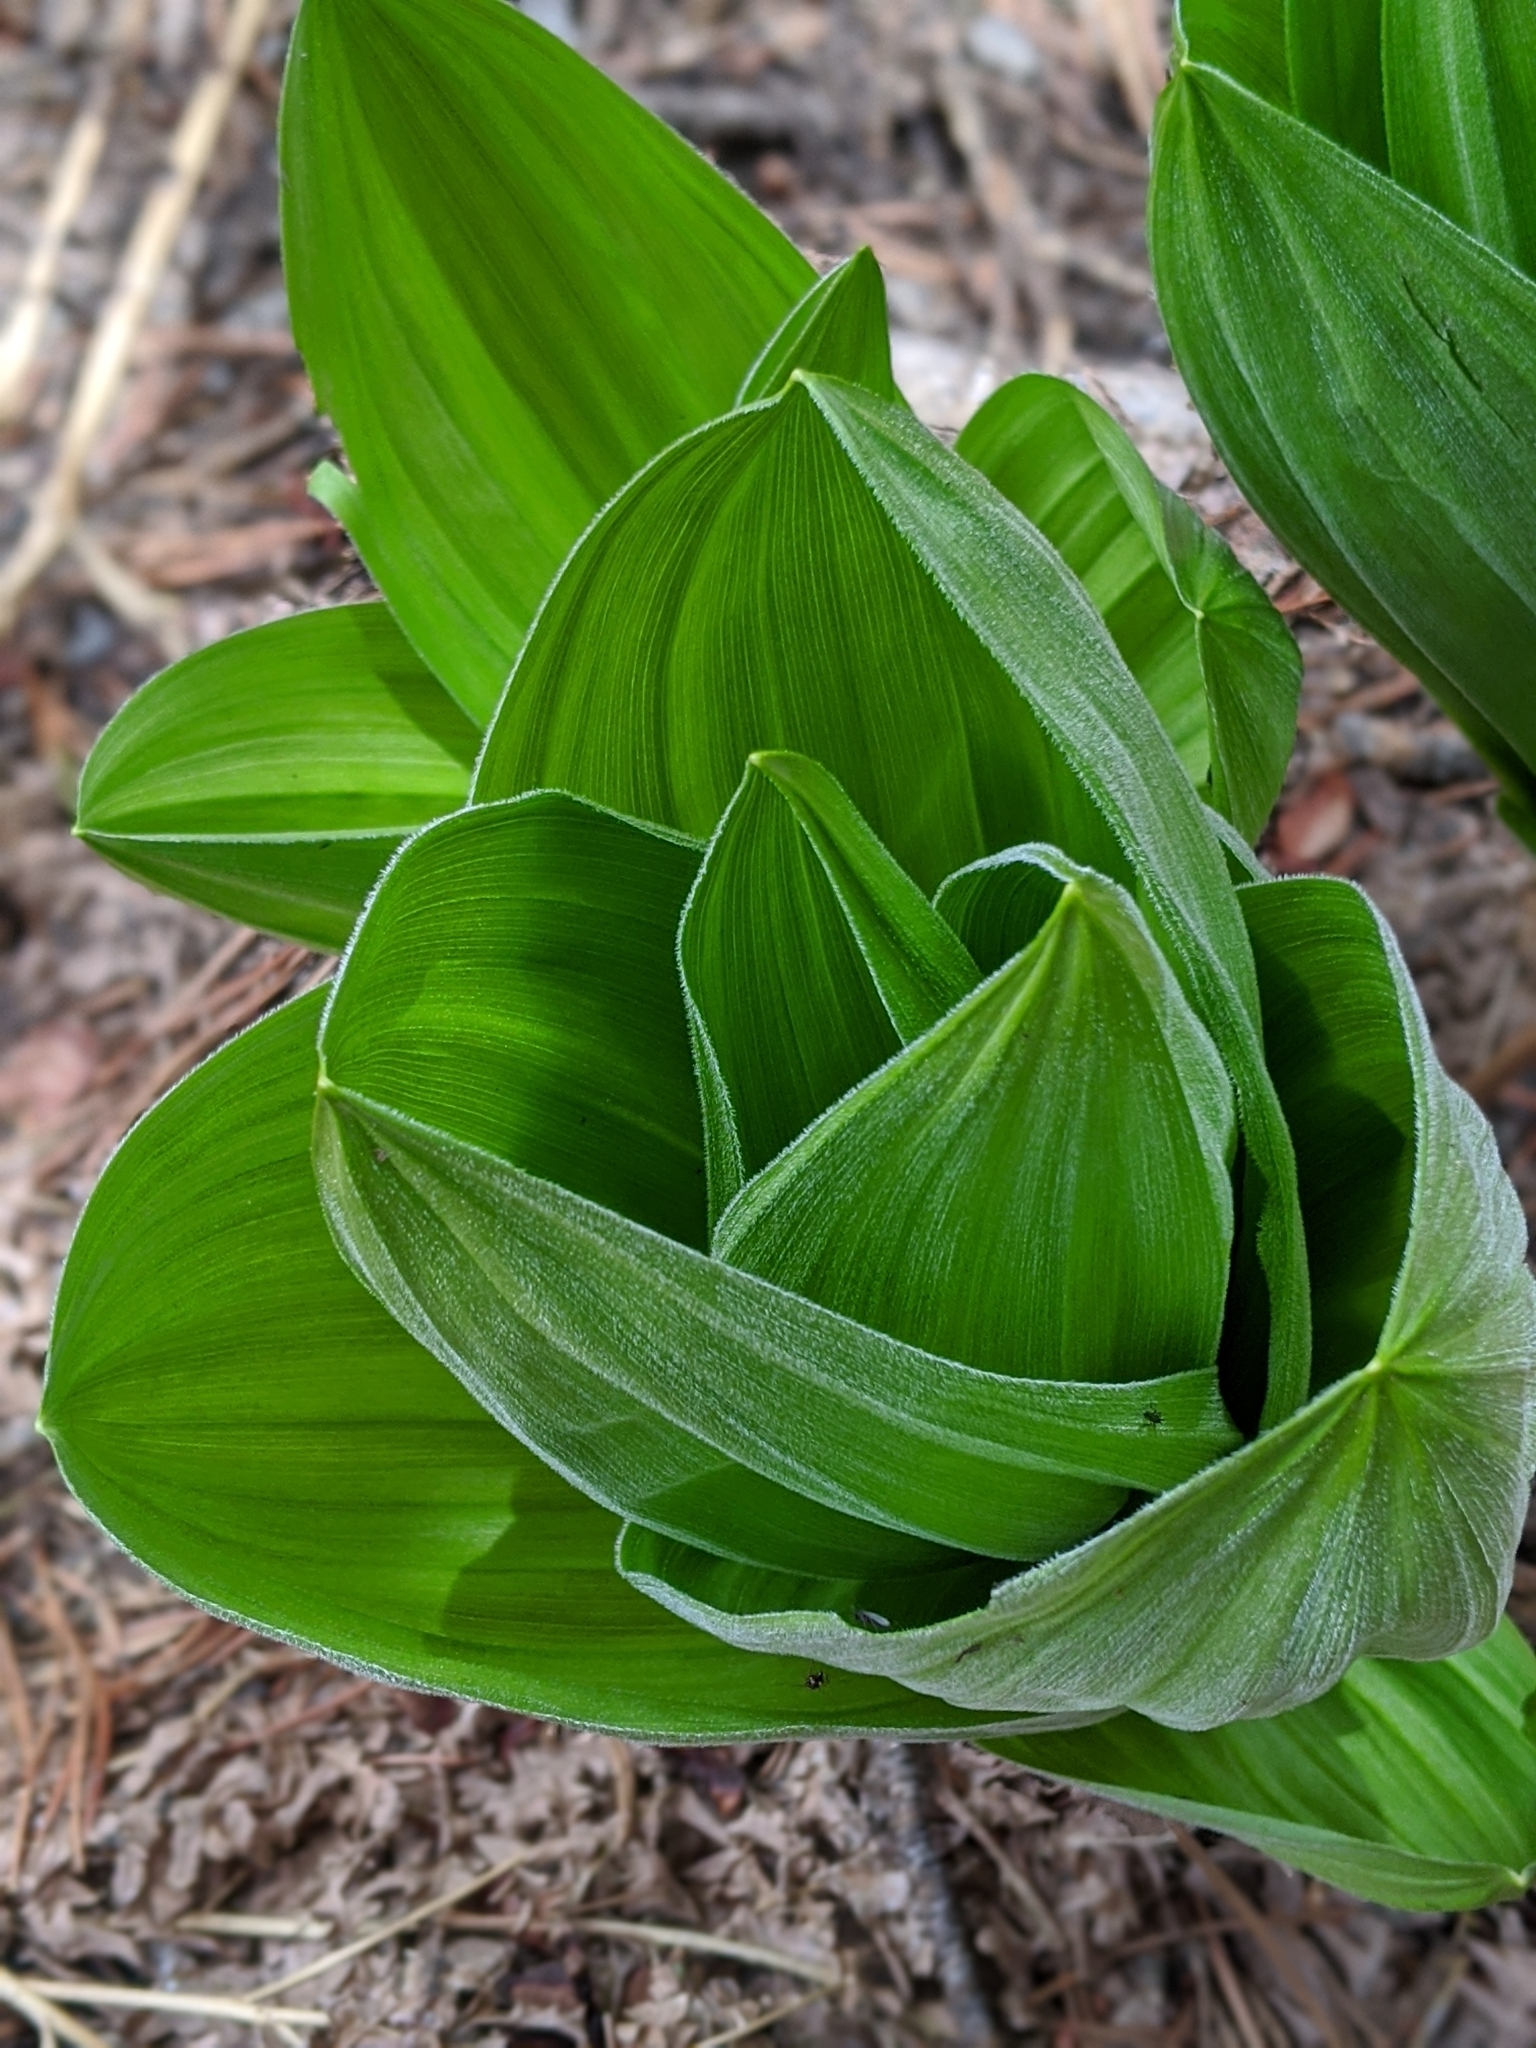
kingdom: Plantae
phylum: Tracheophyta
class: Liliopsida
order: Liliales
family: Melanthiaceae
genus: Veratrum
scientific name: Veratrum californicum
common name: California veratrum
